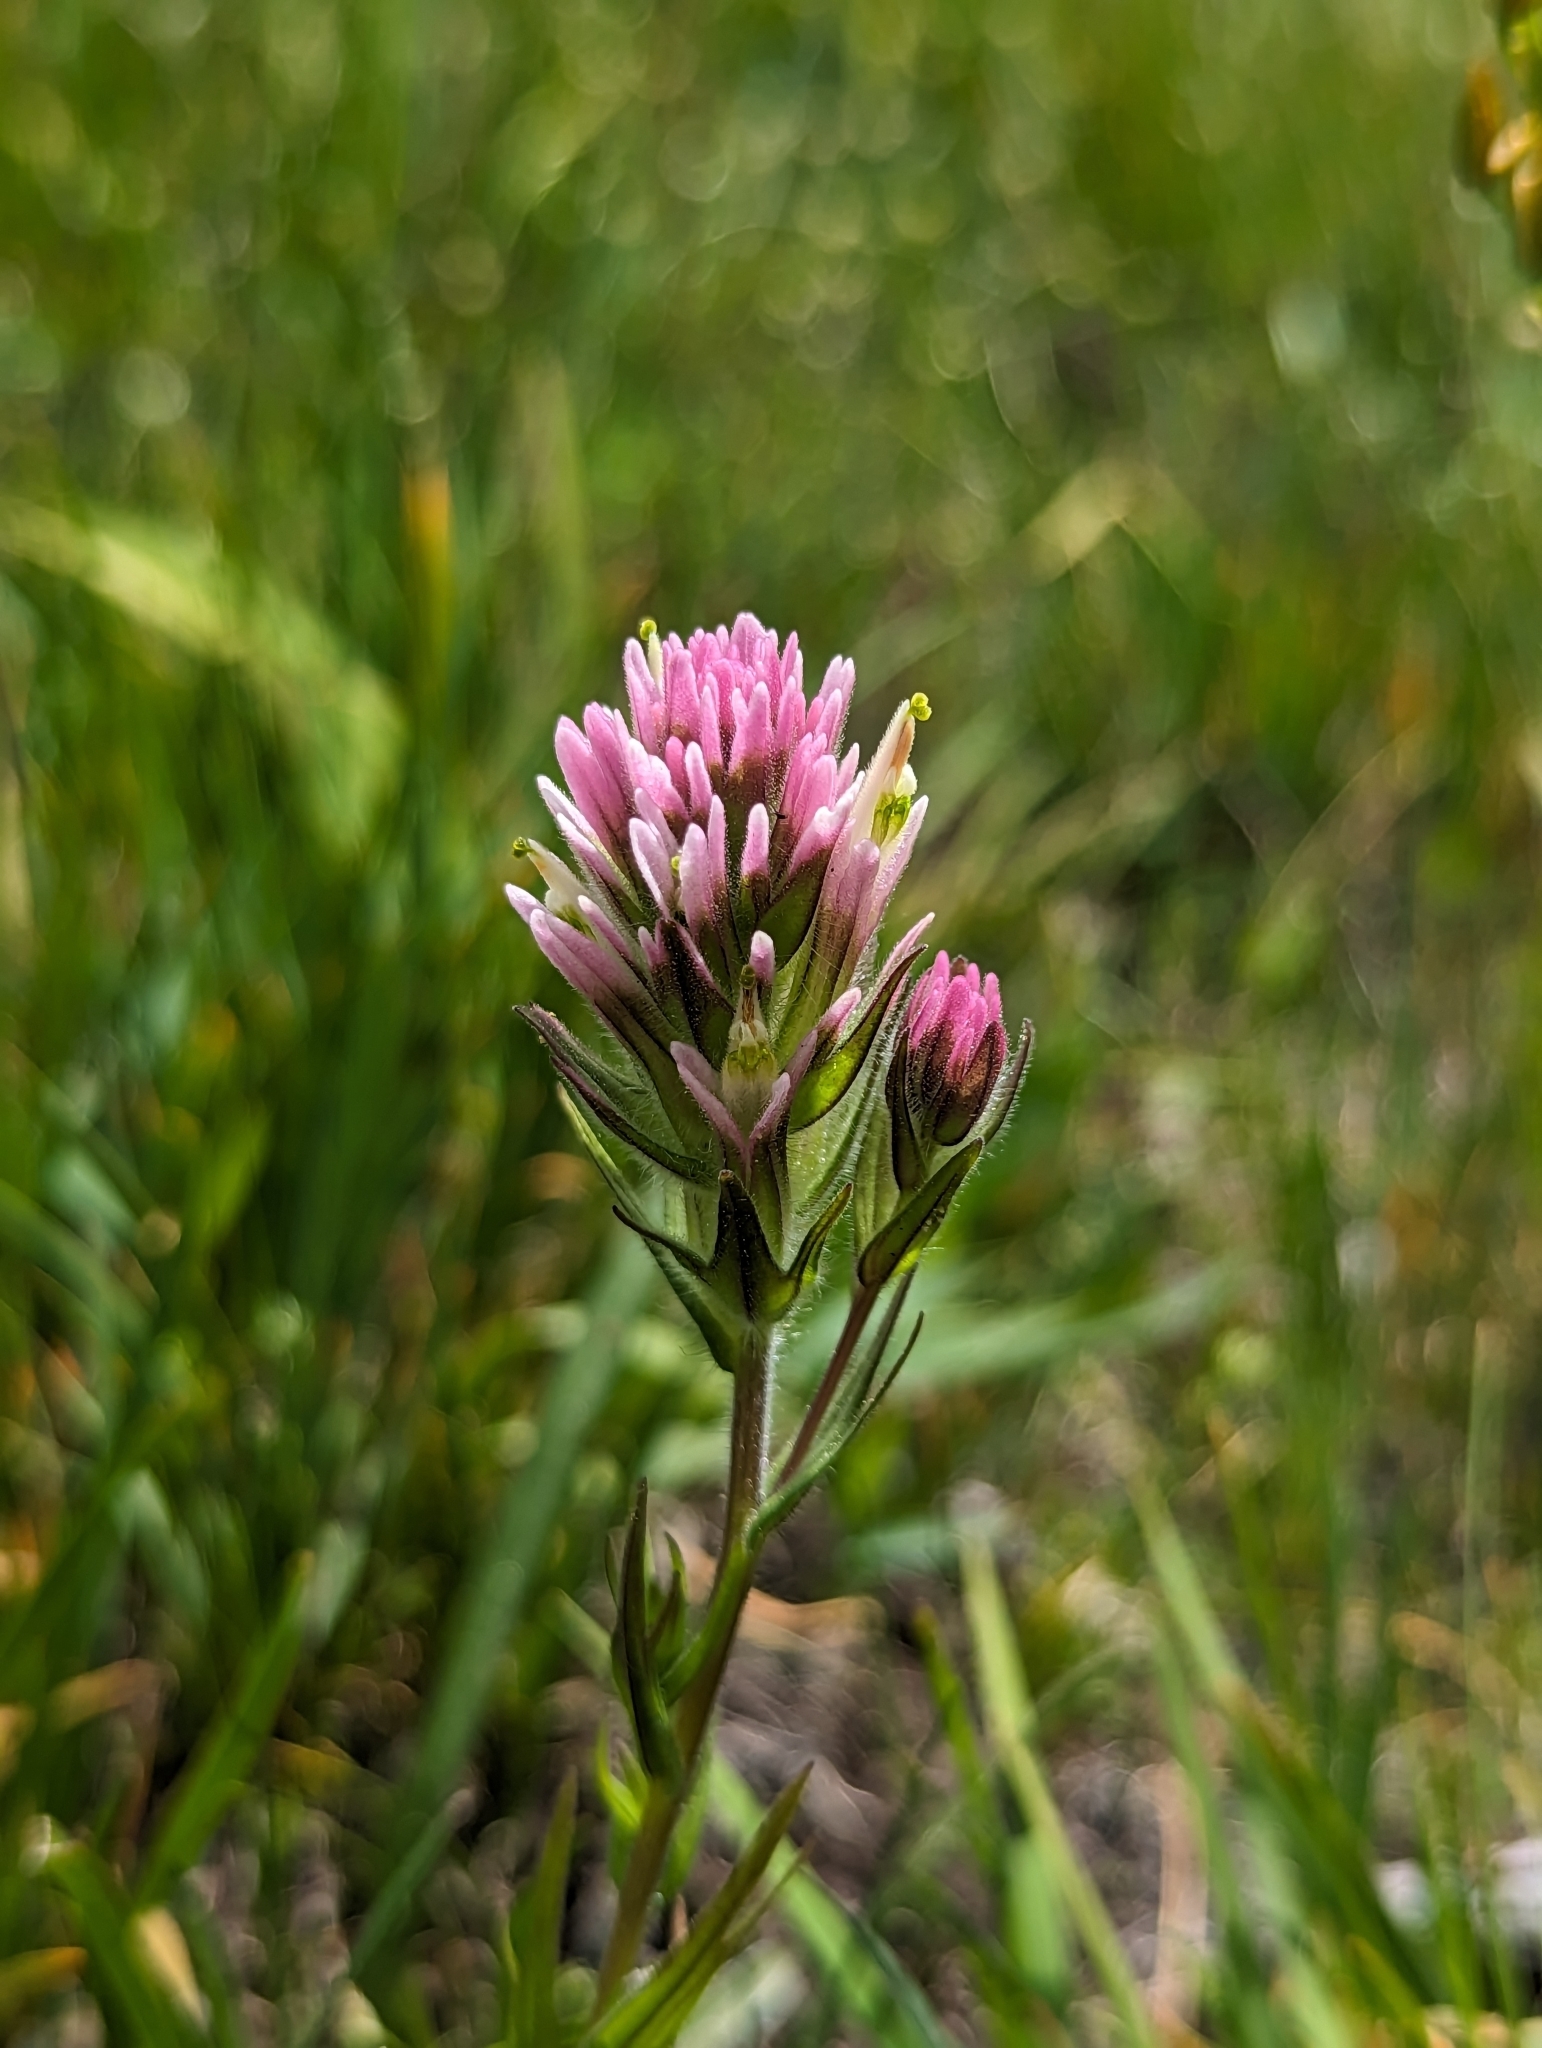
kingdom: Plantae
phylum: Tracheophyta
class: Magnoliopsida
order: Lamiales
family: Orobanchaceae
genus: Castilleja
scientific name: Castilleja lassenensis
